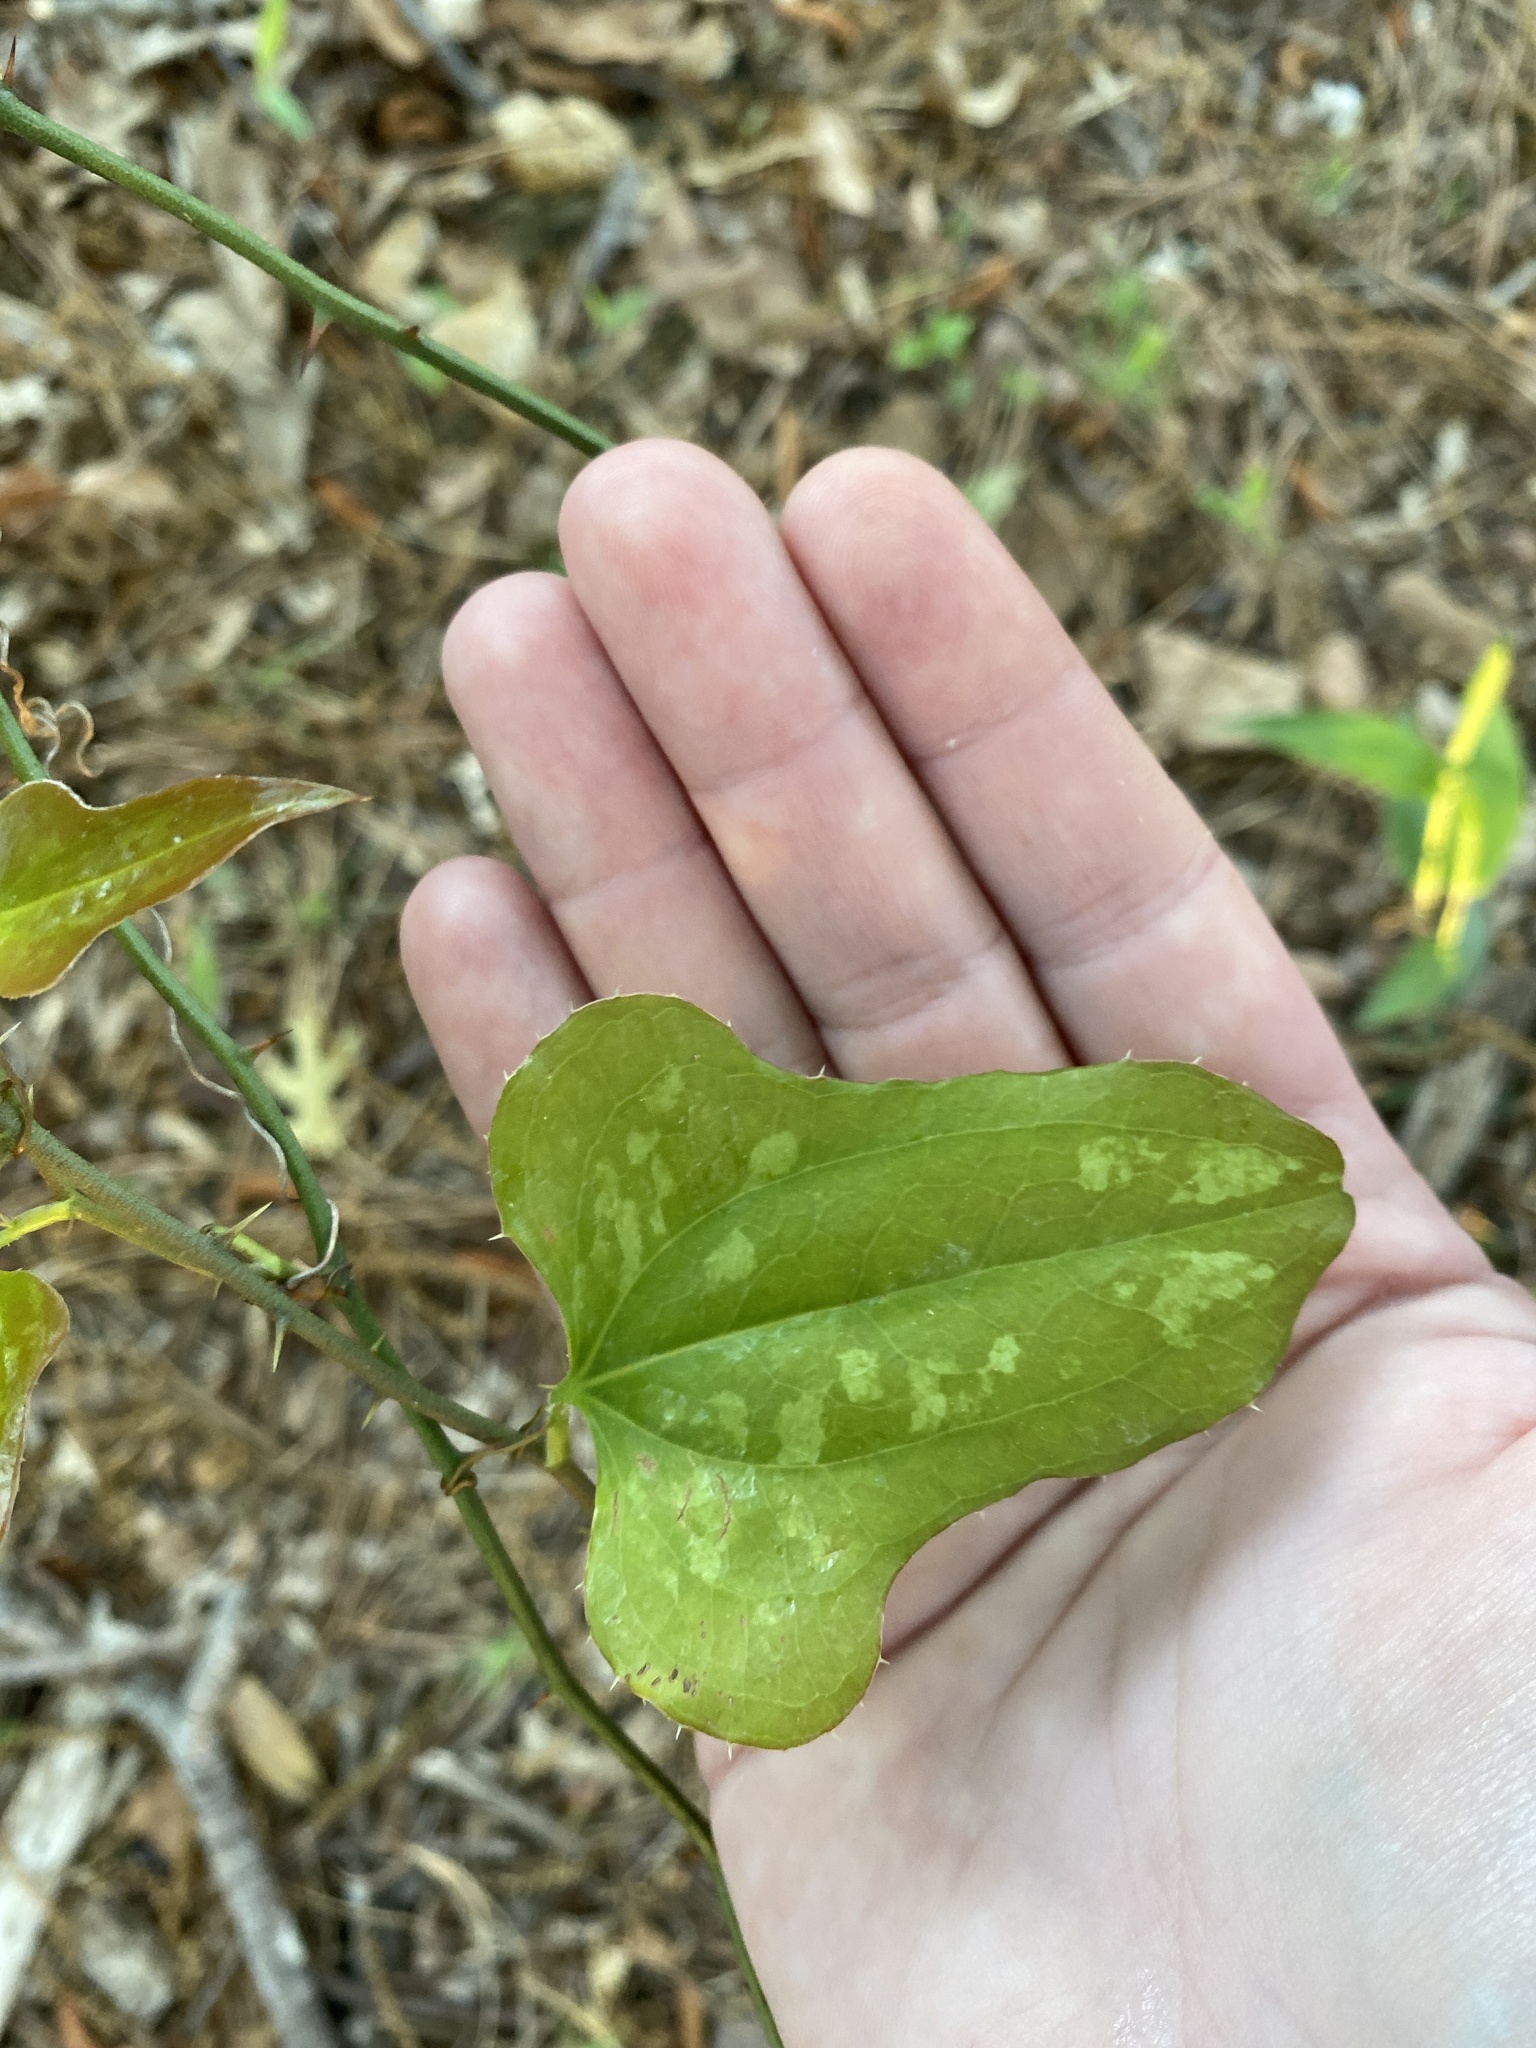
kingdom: Plantae
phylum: Tracheophyta
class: Liliopsida
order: Liliales
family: Smilacaceae
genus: Smilax
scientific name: Smilax bona-nox
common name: Catbrier
